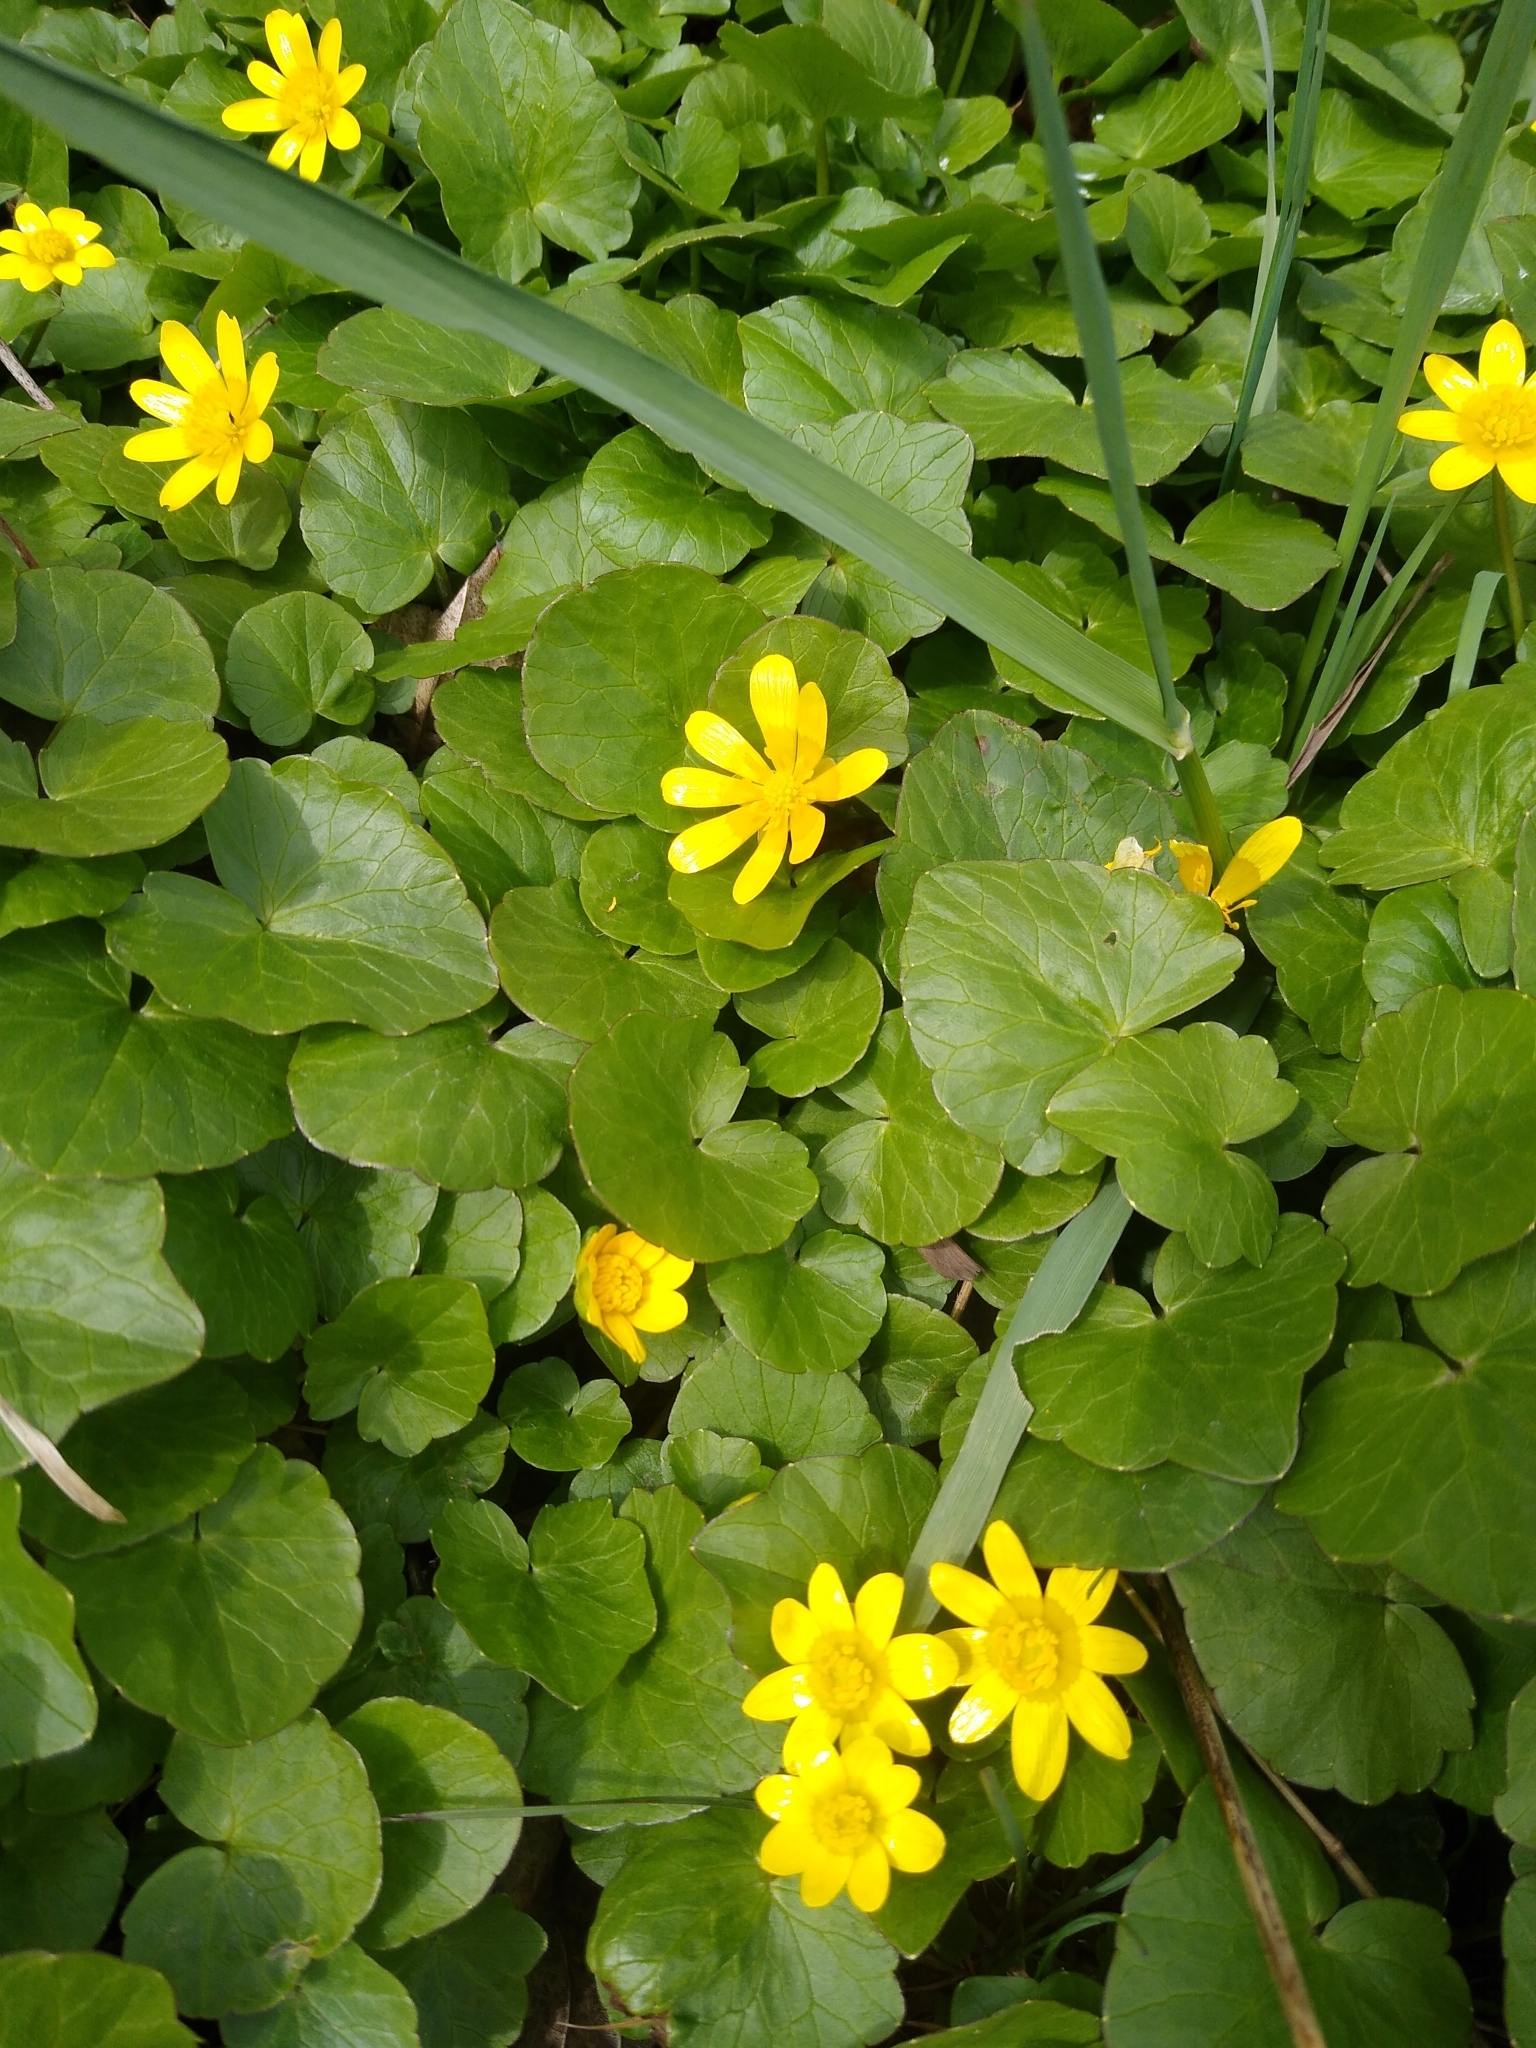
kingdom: Plantae
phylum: Tracheophyta
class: Magnoliopsida
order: Ranunculales
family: Ranunculaceae
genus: Ficaria
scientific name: Ficaria verna
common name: Lesser celandine
